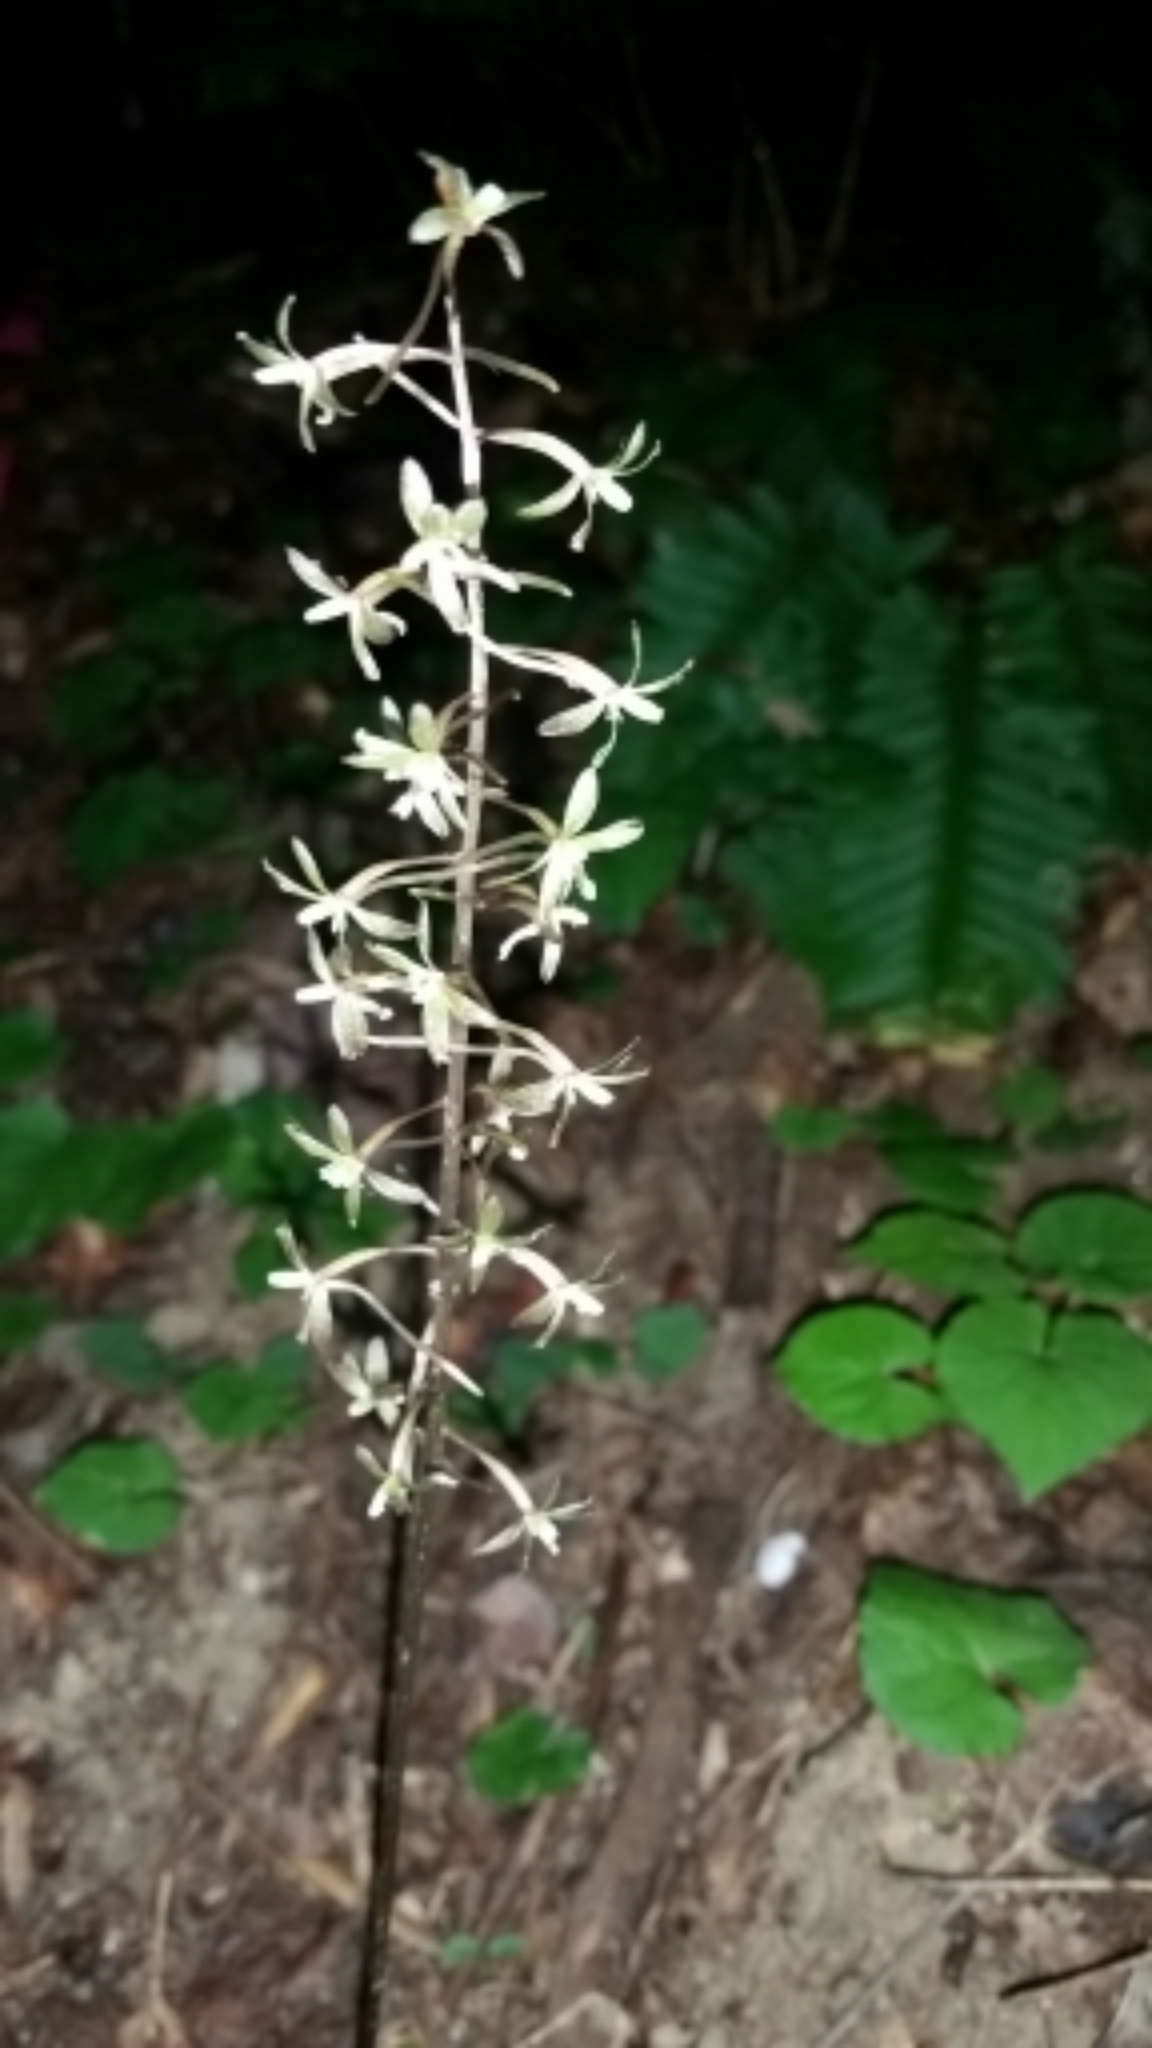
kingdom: Plantae
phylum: Tracheophyta
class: Liliopsida
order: Asparagales
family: Orchidaceae
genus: Tipularia
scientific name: Tipularia discolor
